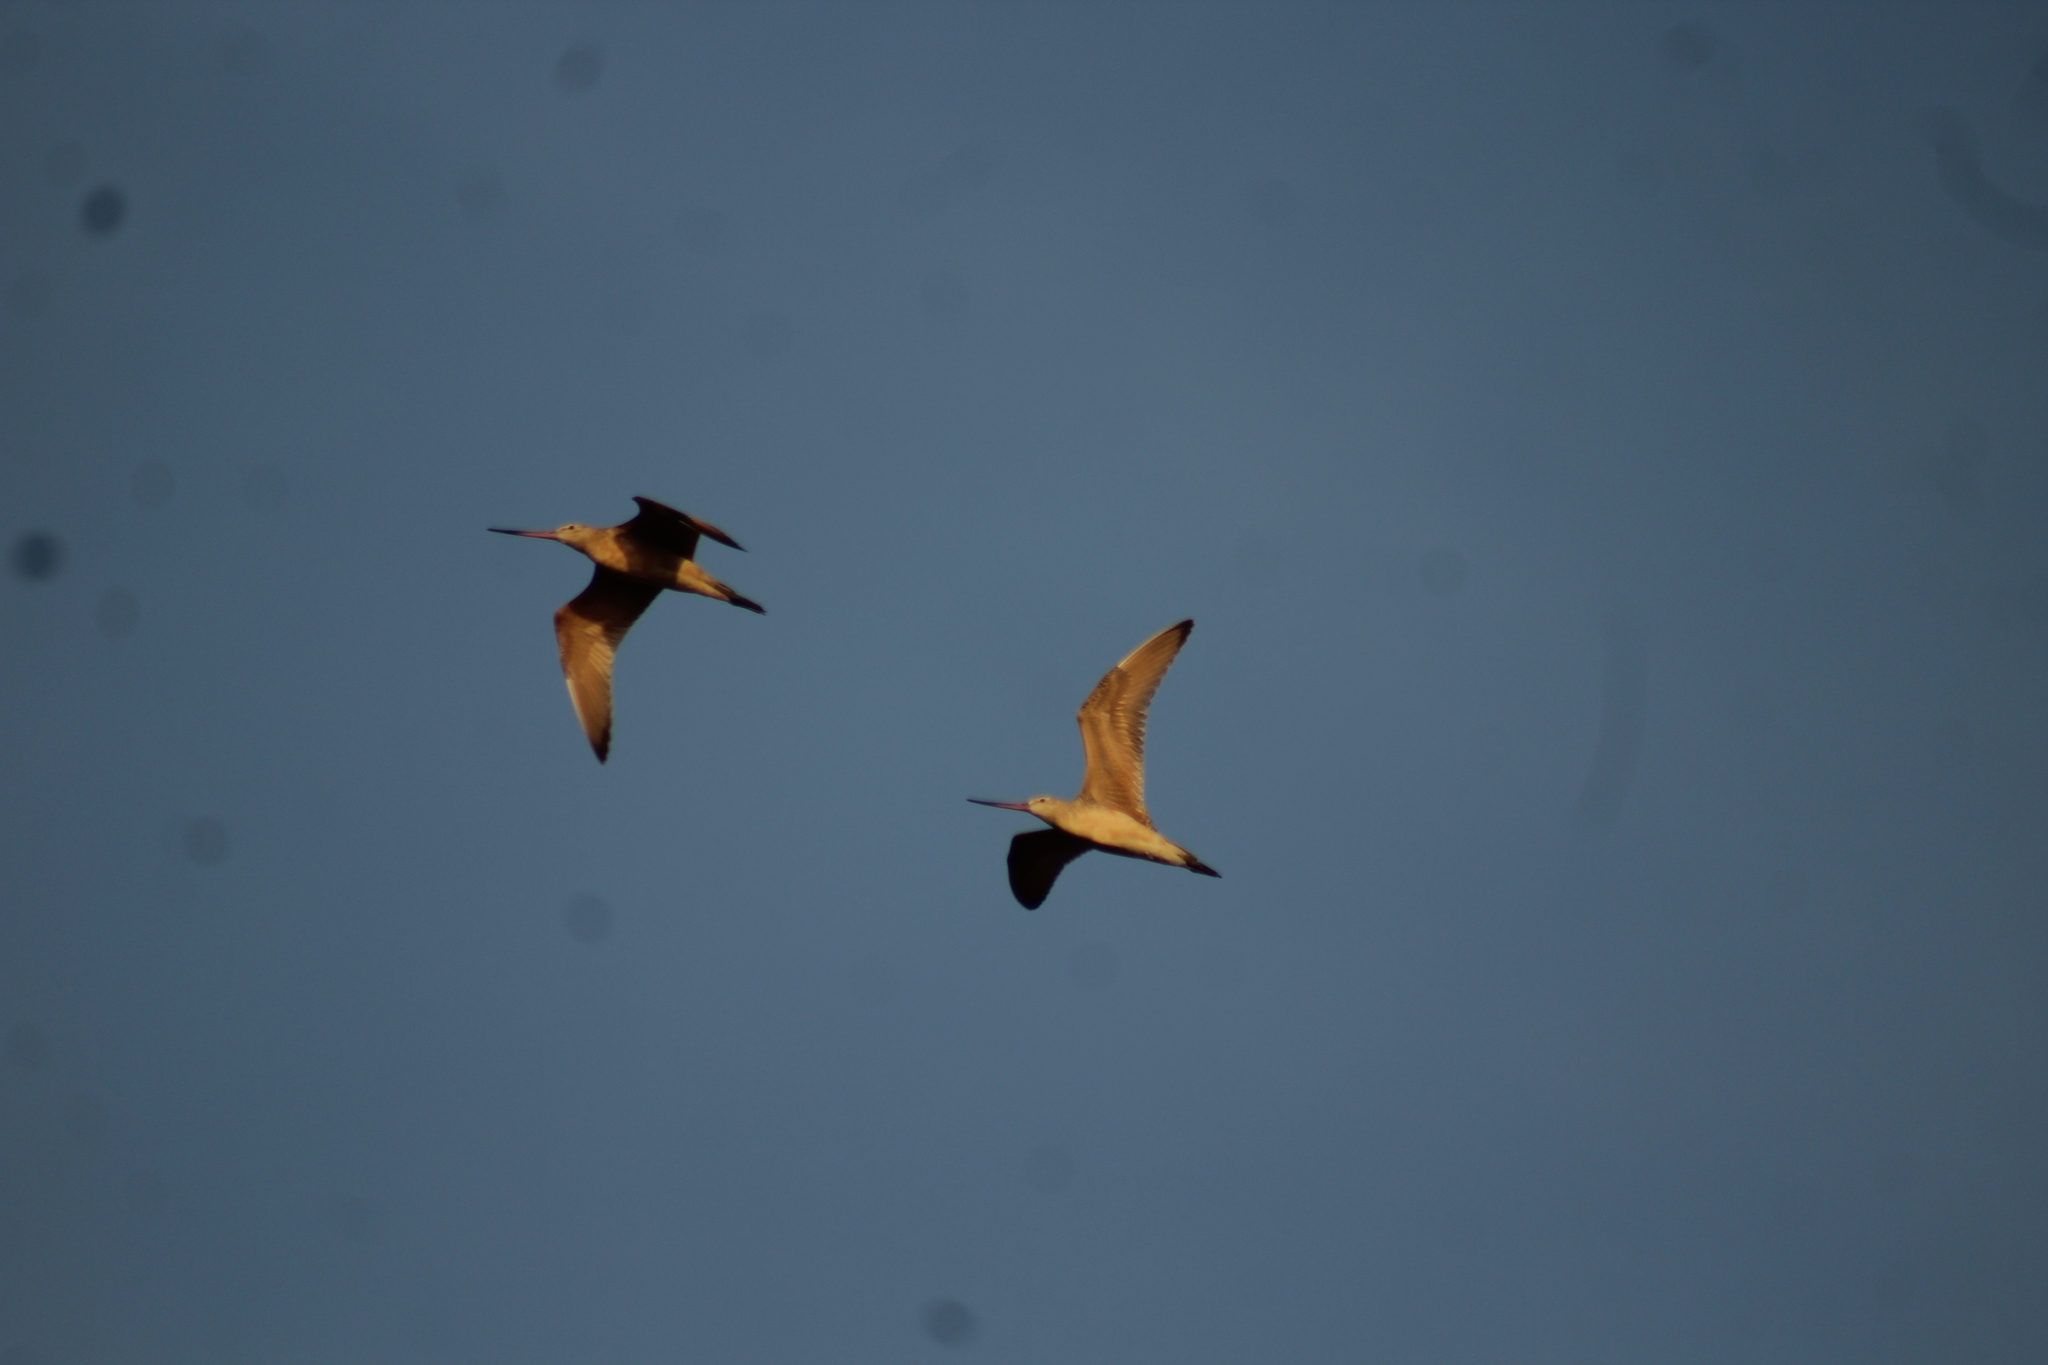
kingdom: Animalia
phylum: Chordata
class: Aves
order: Charadriiformes
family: Scolopacidae
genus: Limosa
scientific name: Limosa fedoa
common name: Marbled godwit
